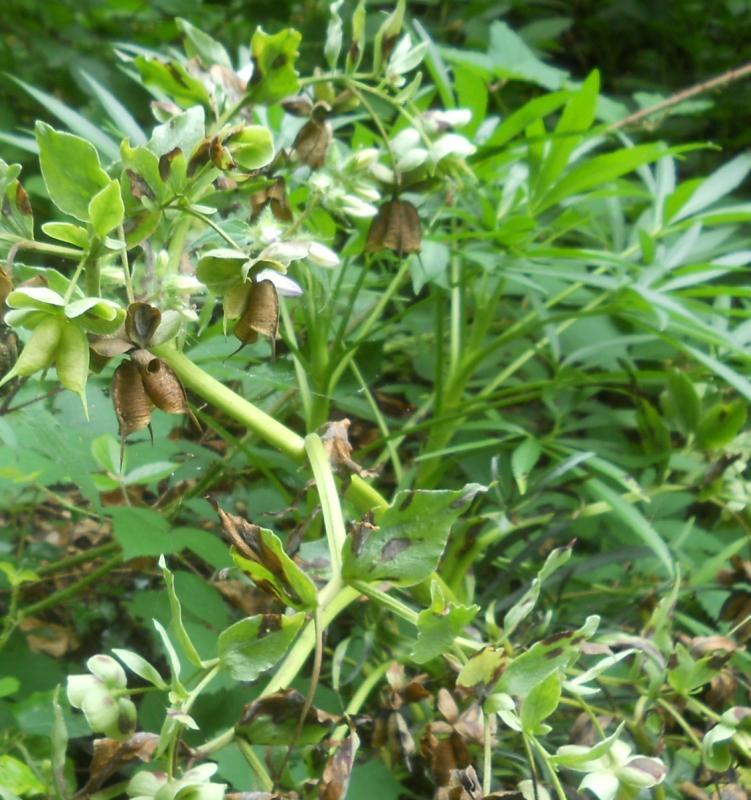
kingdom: Plantae
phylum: Tracheophyta
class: Magnoliopsida
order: Ranunculales
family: Ranunculaceae
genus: Helleborus
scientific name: Helleborus foetidus
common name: Stinking hellebore
